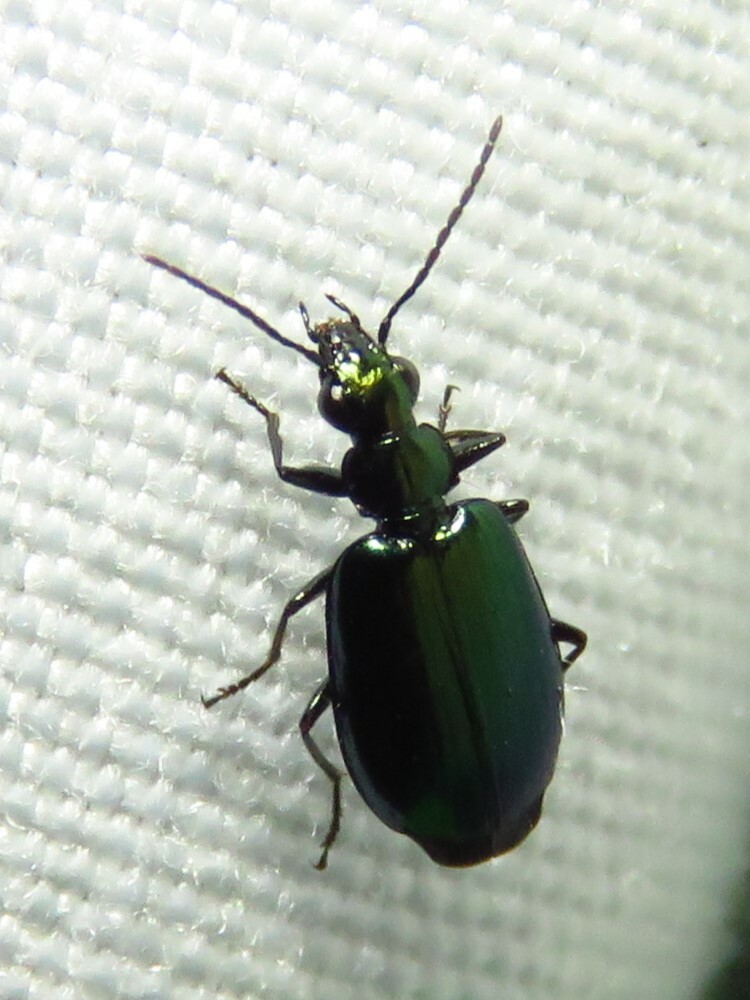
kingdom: Animalia
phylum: Arthropoda
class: Insecta
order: Coleoptera
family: Carabidae
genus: Lebia
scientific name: Lebia viridis
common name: Flower lebia beetle
